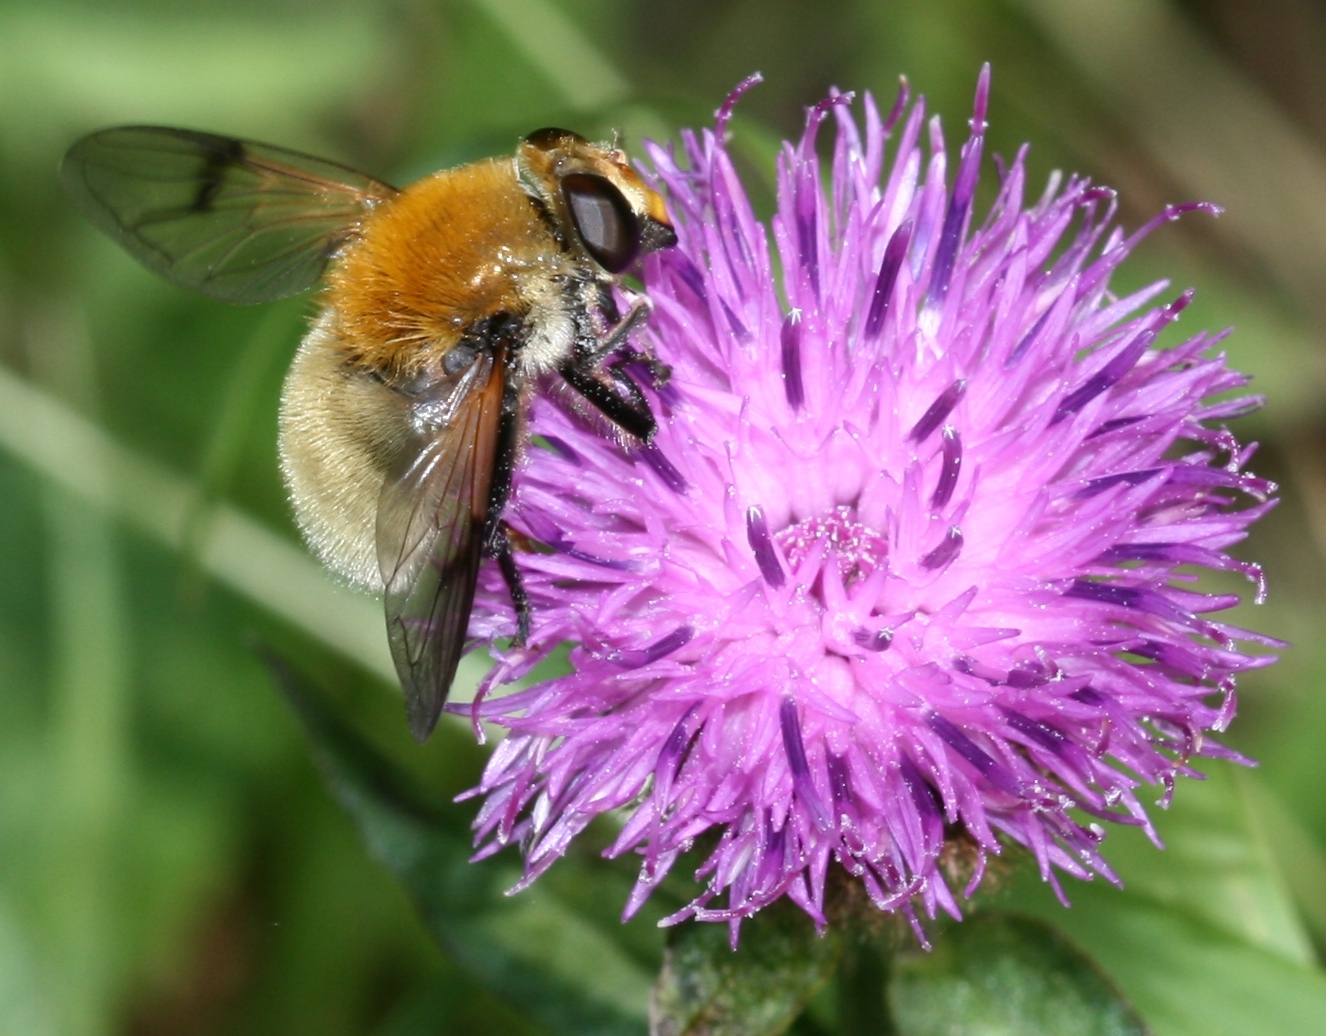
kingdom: Animalia
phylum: Arthropoda
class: Insecta
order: Diptera
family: Syrphidae
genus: Sericomyia
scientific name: Sericomyia superbiens
